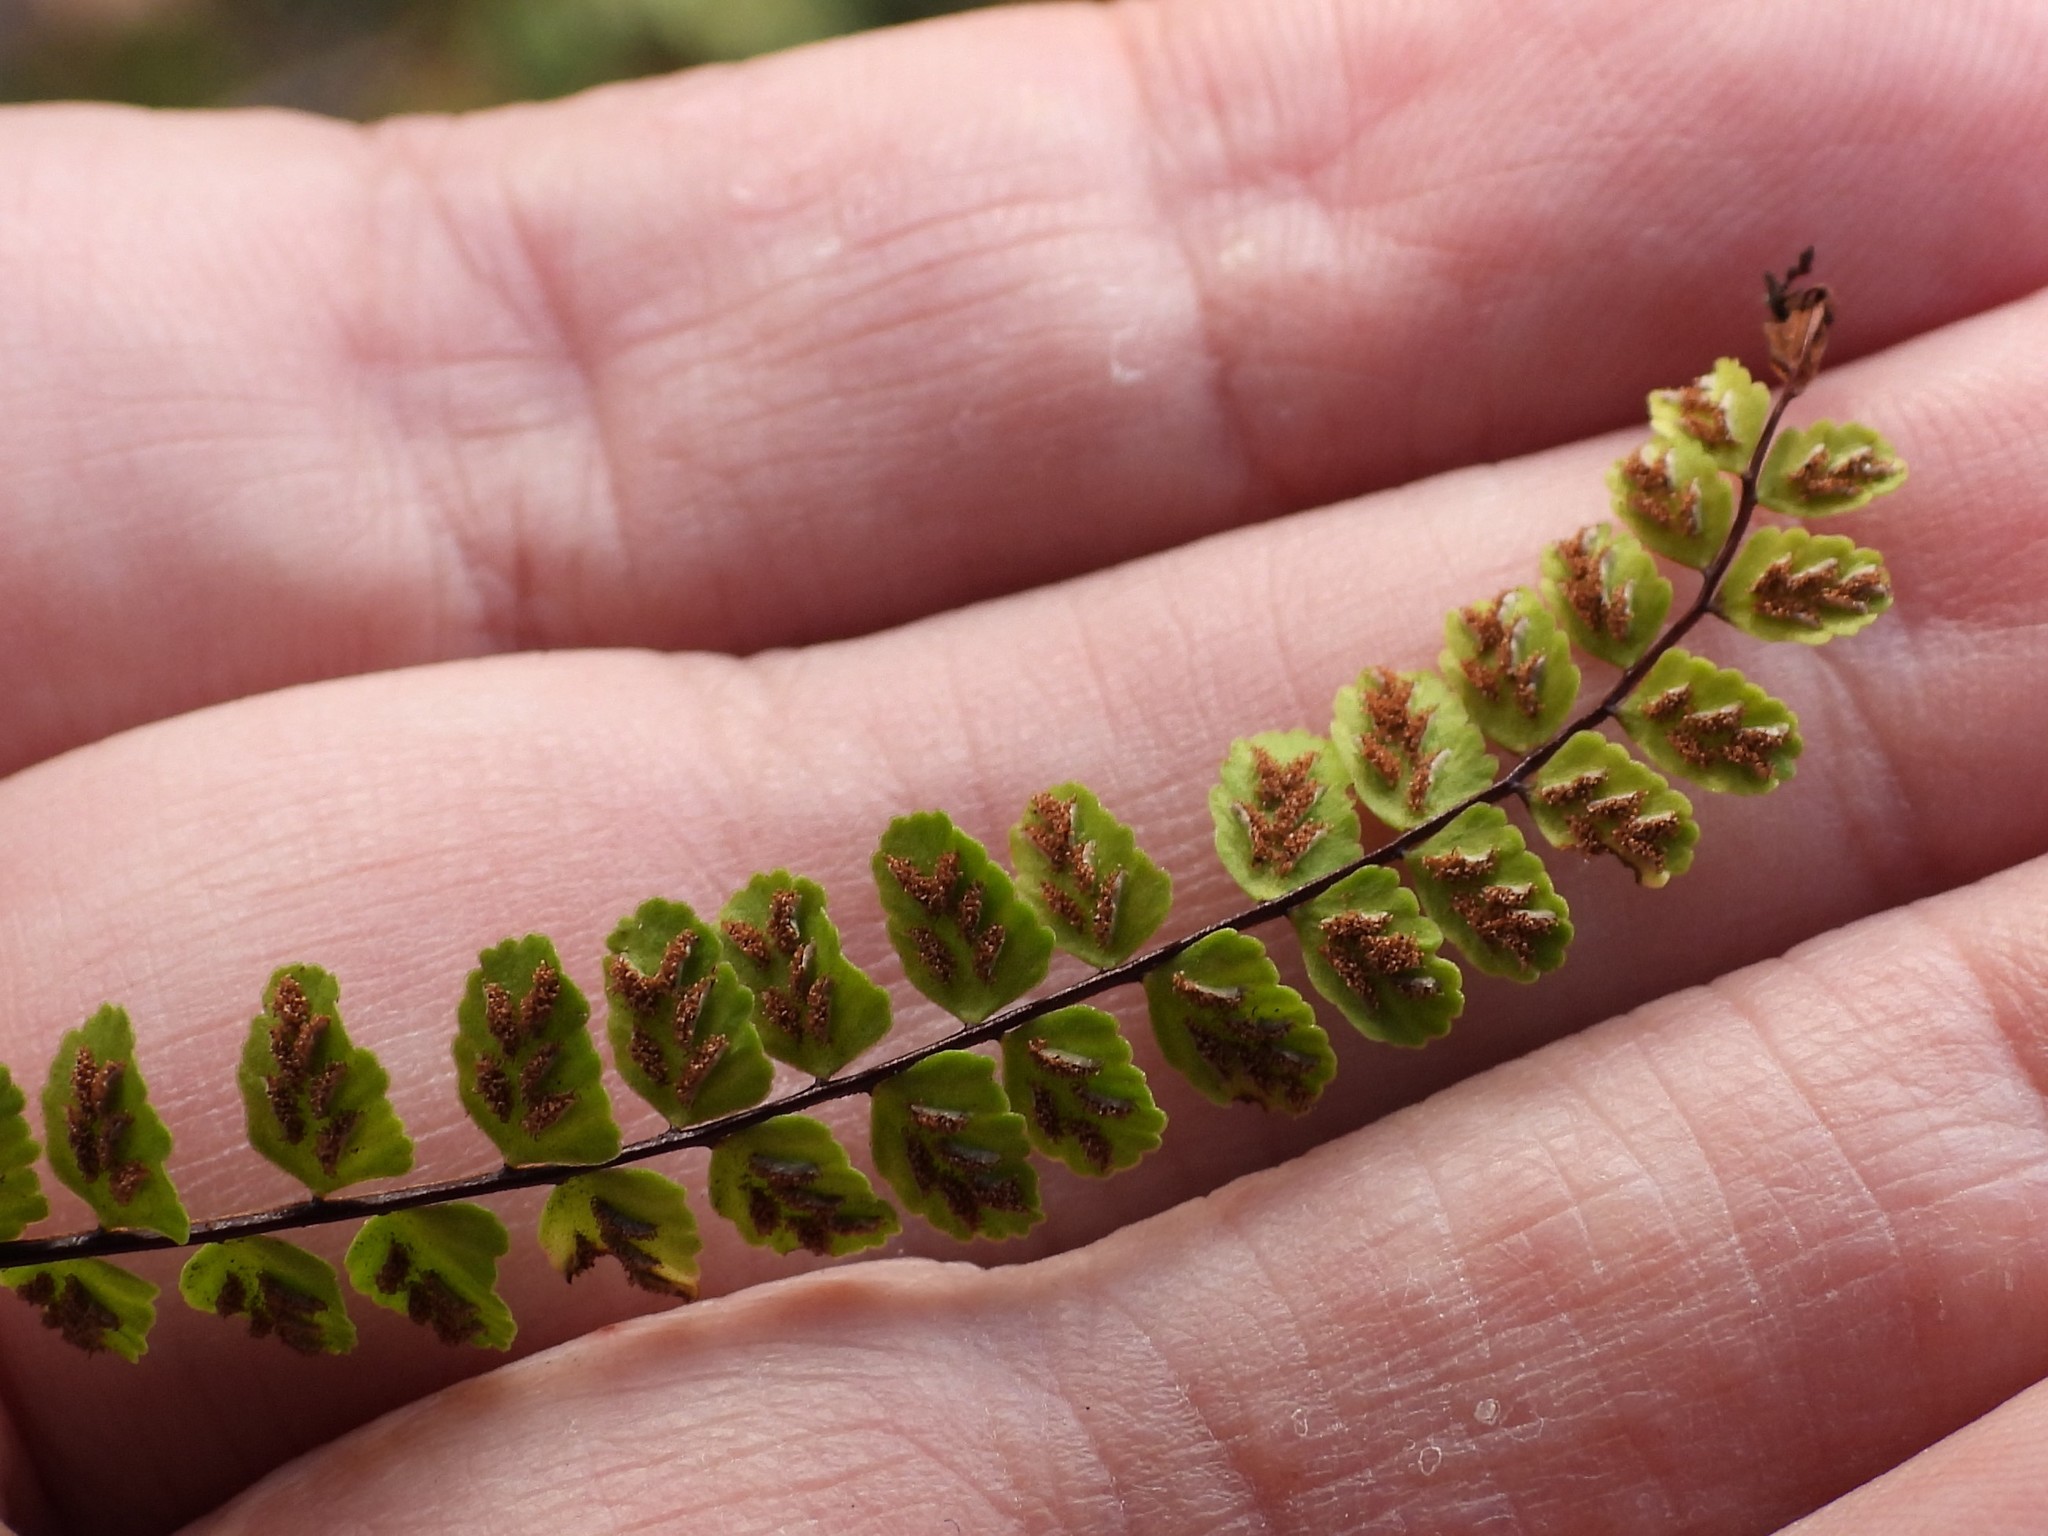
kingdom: Plantae
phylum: Tracheophyta
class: Polypodiopsida
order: Polypodiales
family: Aspleniaceae
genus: Asplenium
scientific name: Asplenium trichomanes
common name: Maidenhair spleenwort
